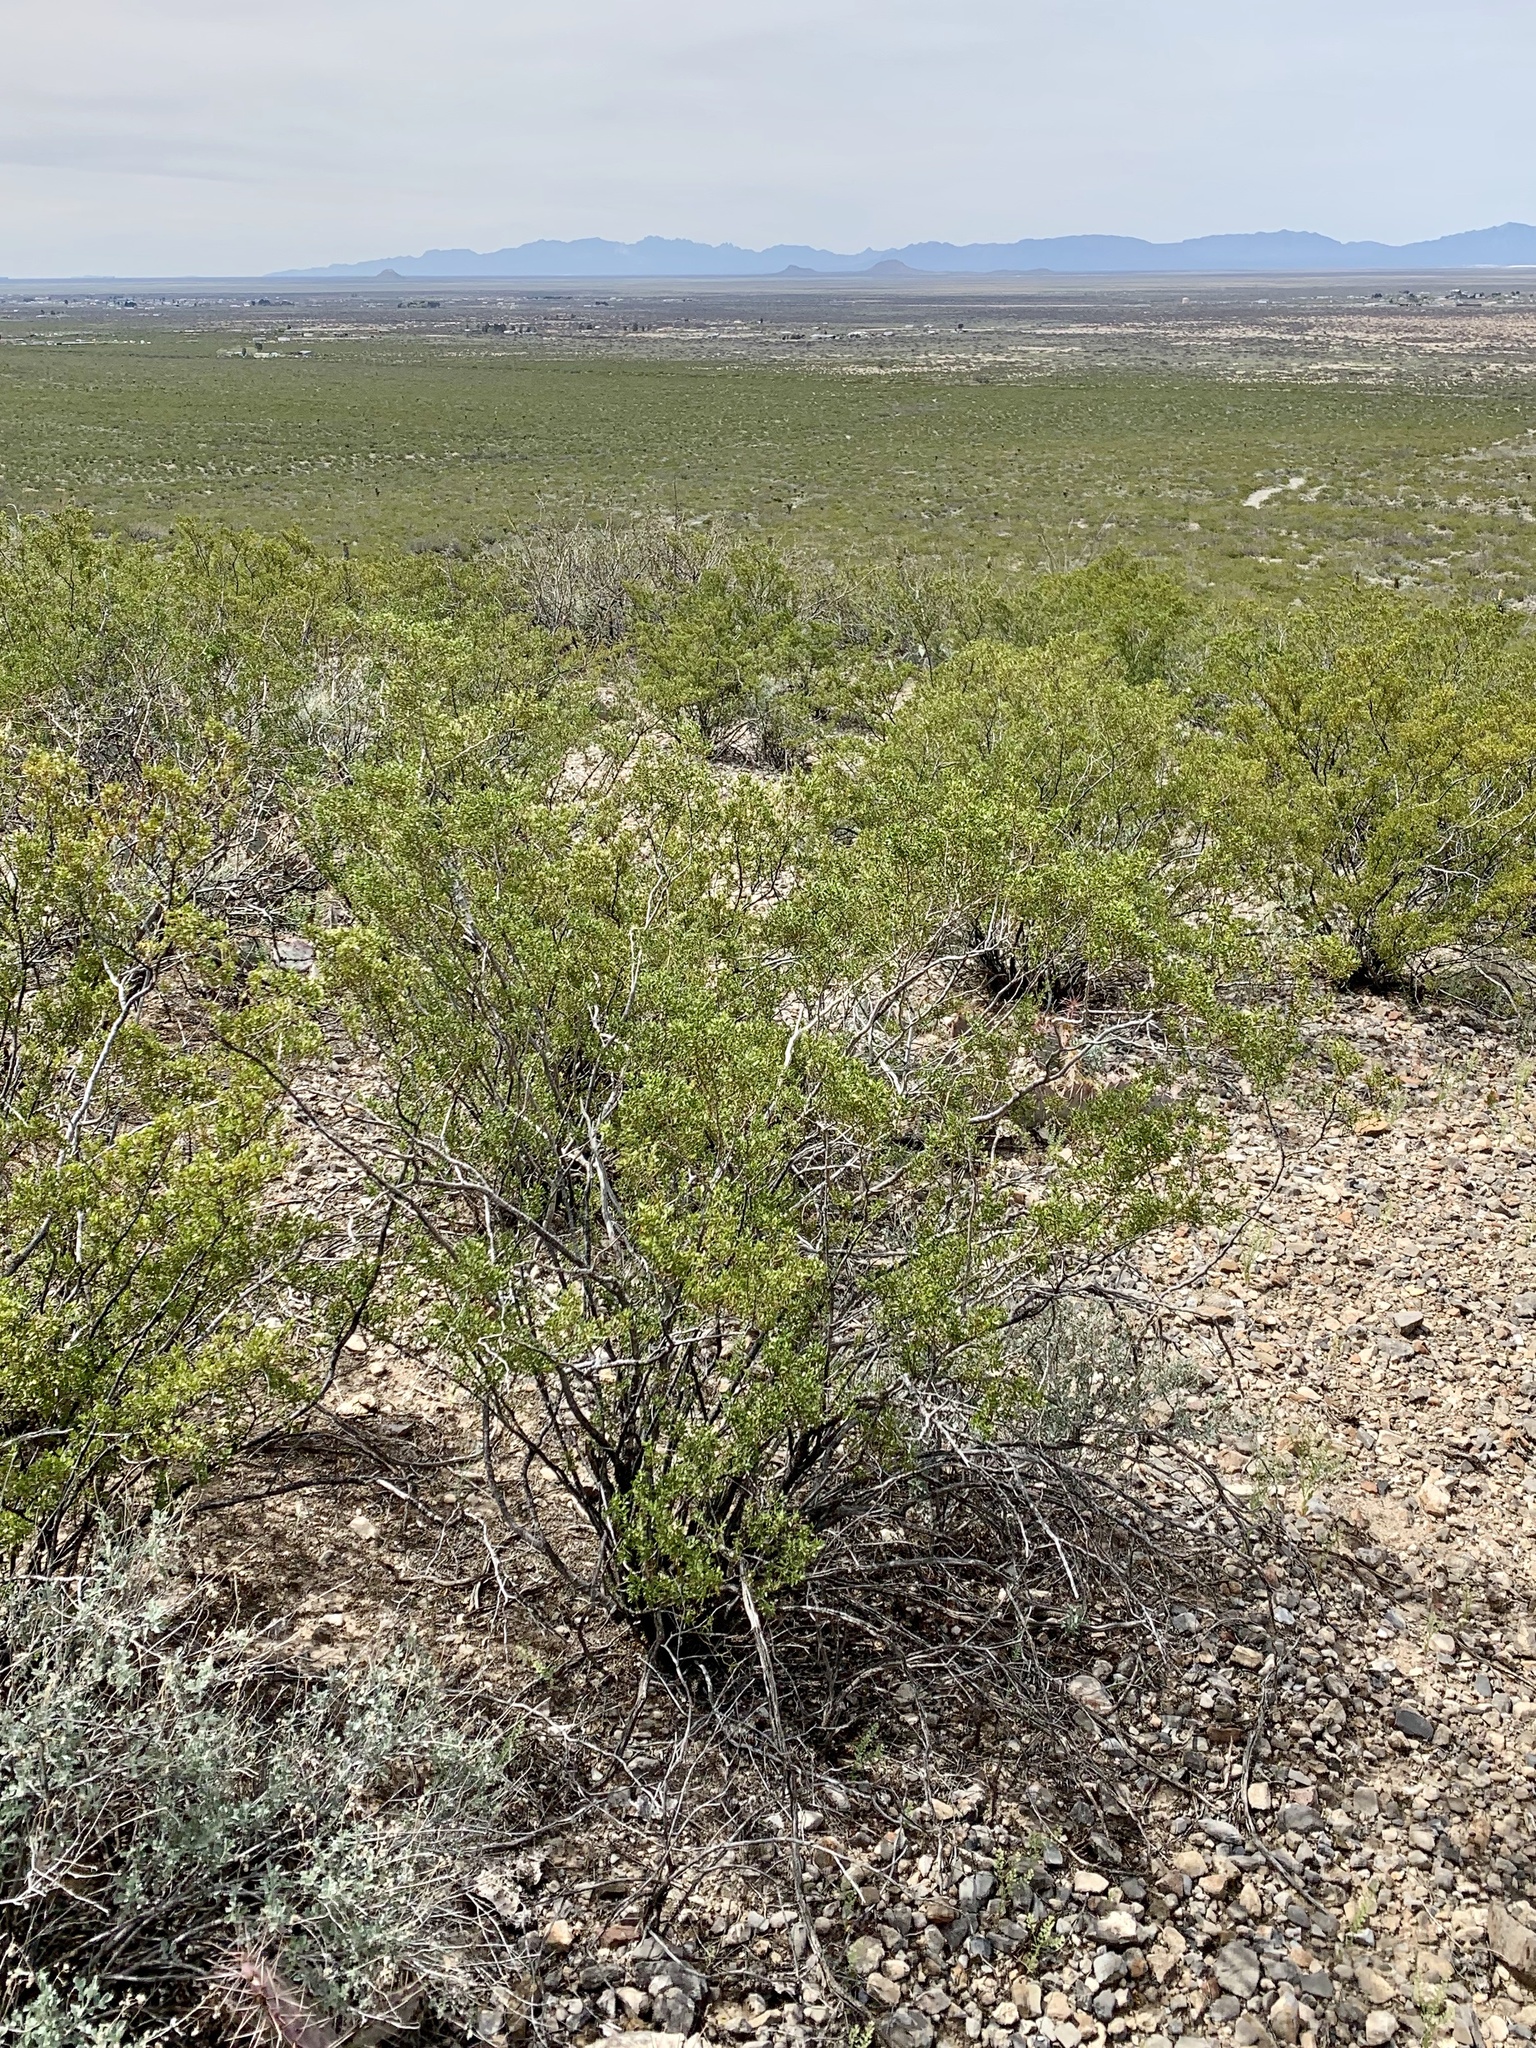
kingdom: Plantae
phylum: Tracheophyta
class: Magnoliopsida
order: Zygophyllales
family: Zygophyllaceae
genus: Larrea
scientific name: Larrea tridentata
